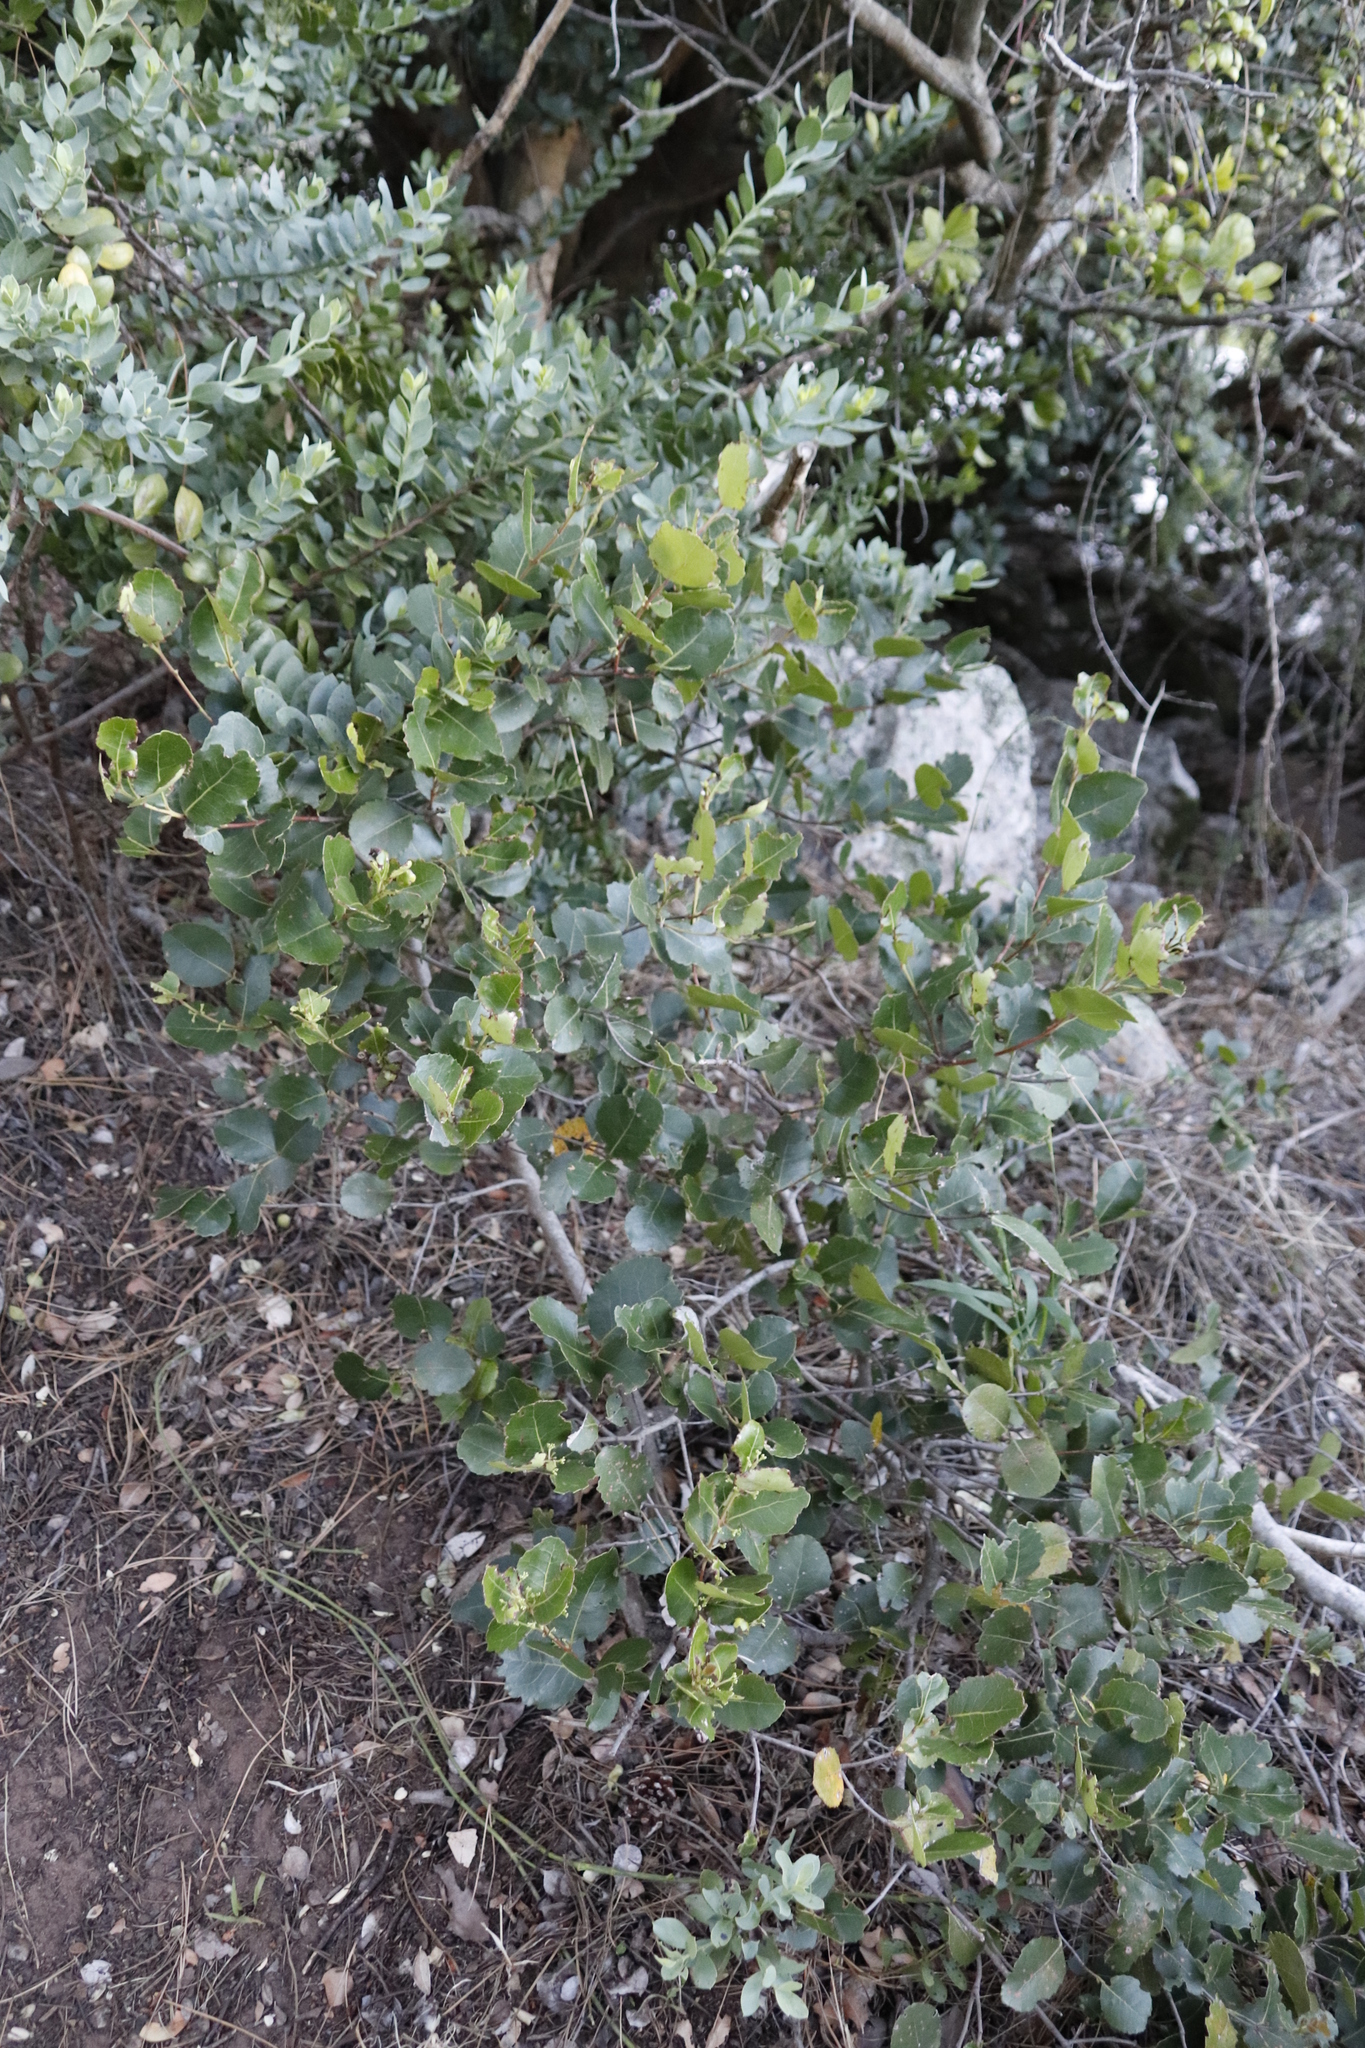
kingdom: Plantae
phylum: Tracheophyta
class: Magnoliopsida
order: Celastrales
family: Celastraceae
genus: Cassine
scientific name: Cassine peragua
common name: Cape saffron
